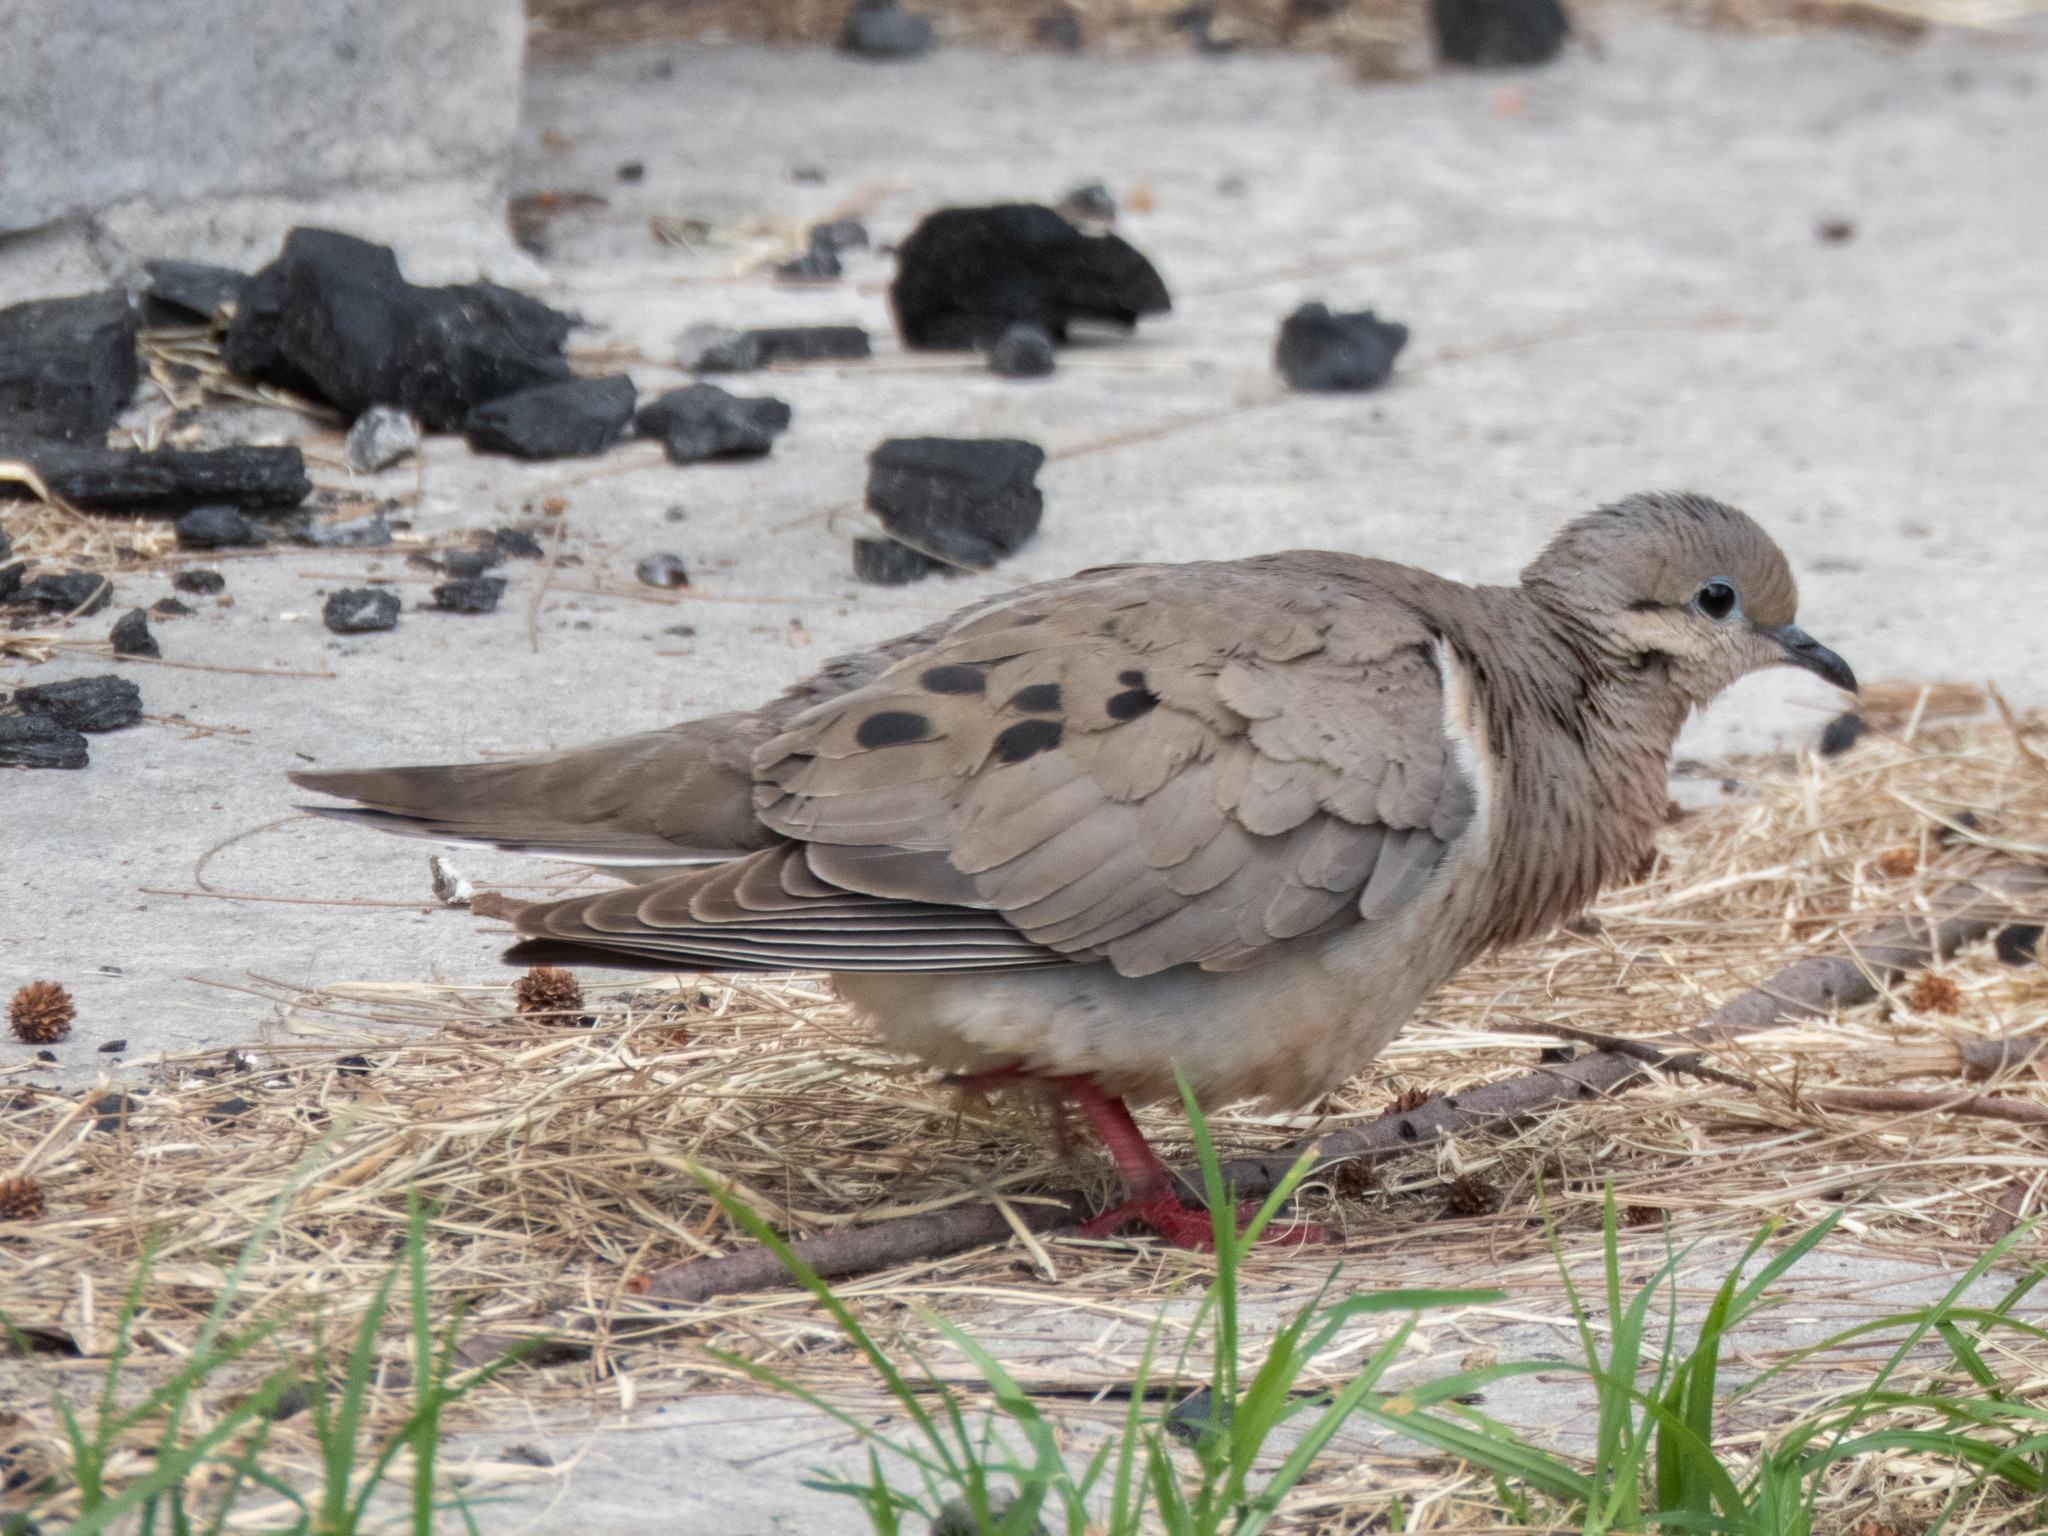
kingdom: Animalia
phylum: Chordata
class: Aves
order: Columbiformes
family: Columbidae
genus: Zenaida
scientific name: Zenaida auriculata
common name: Eared dove
